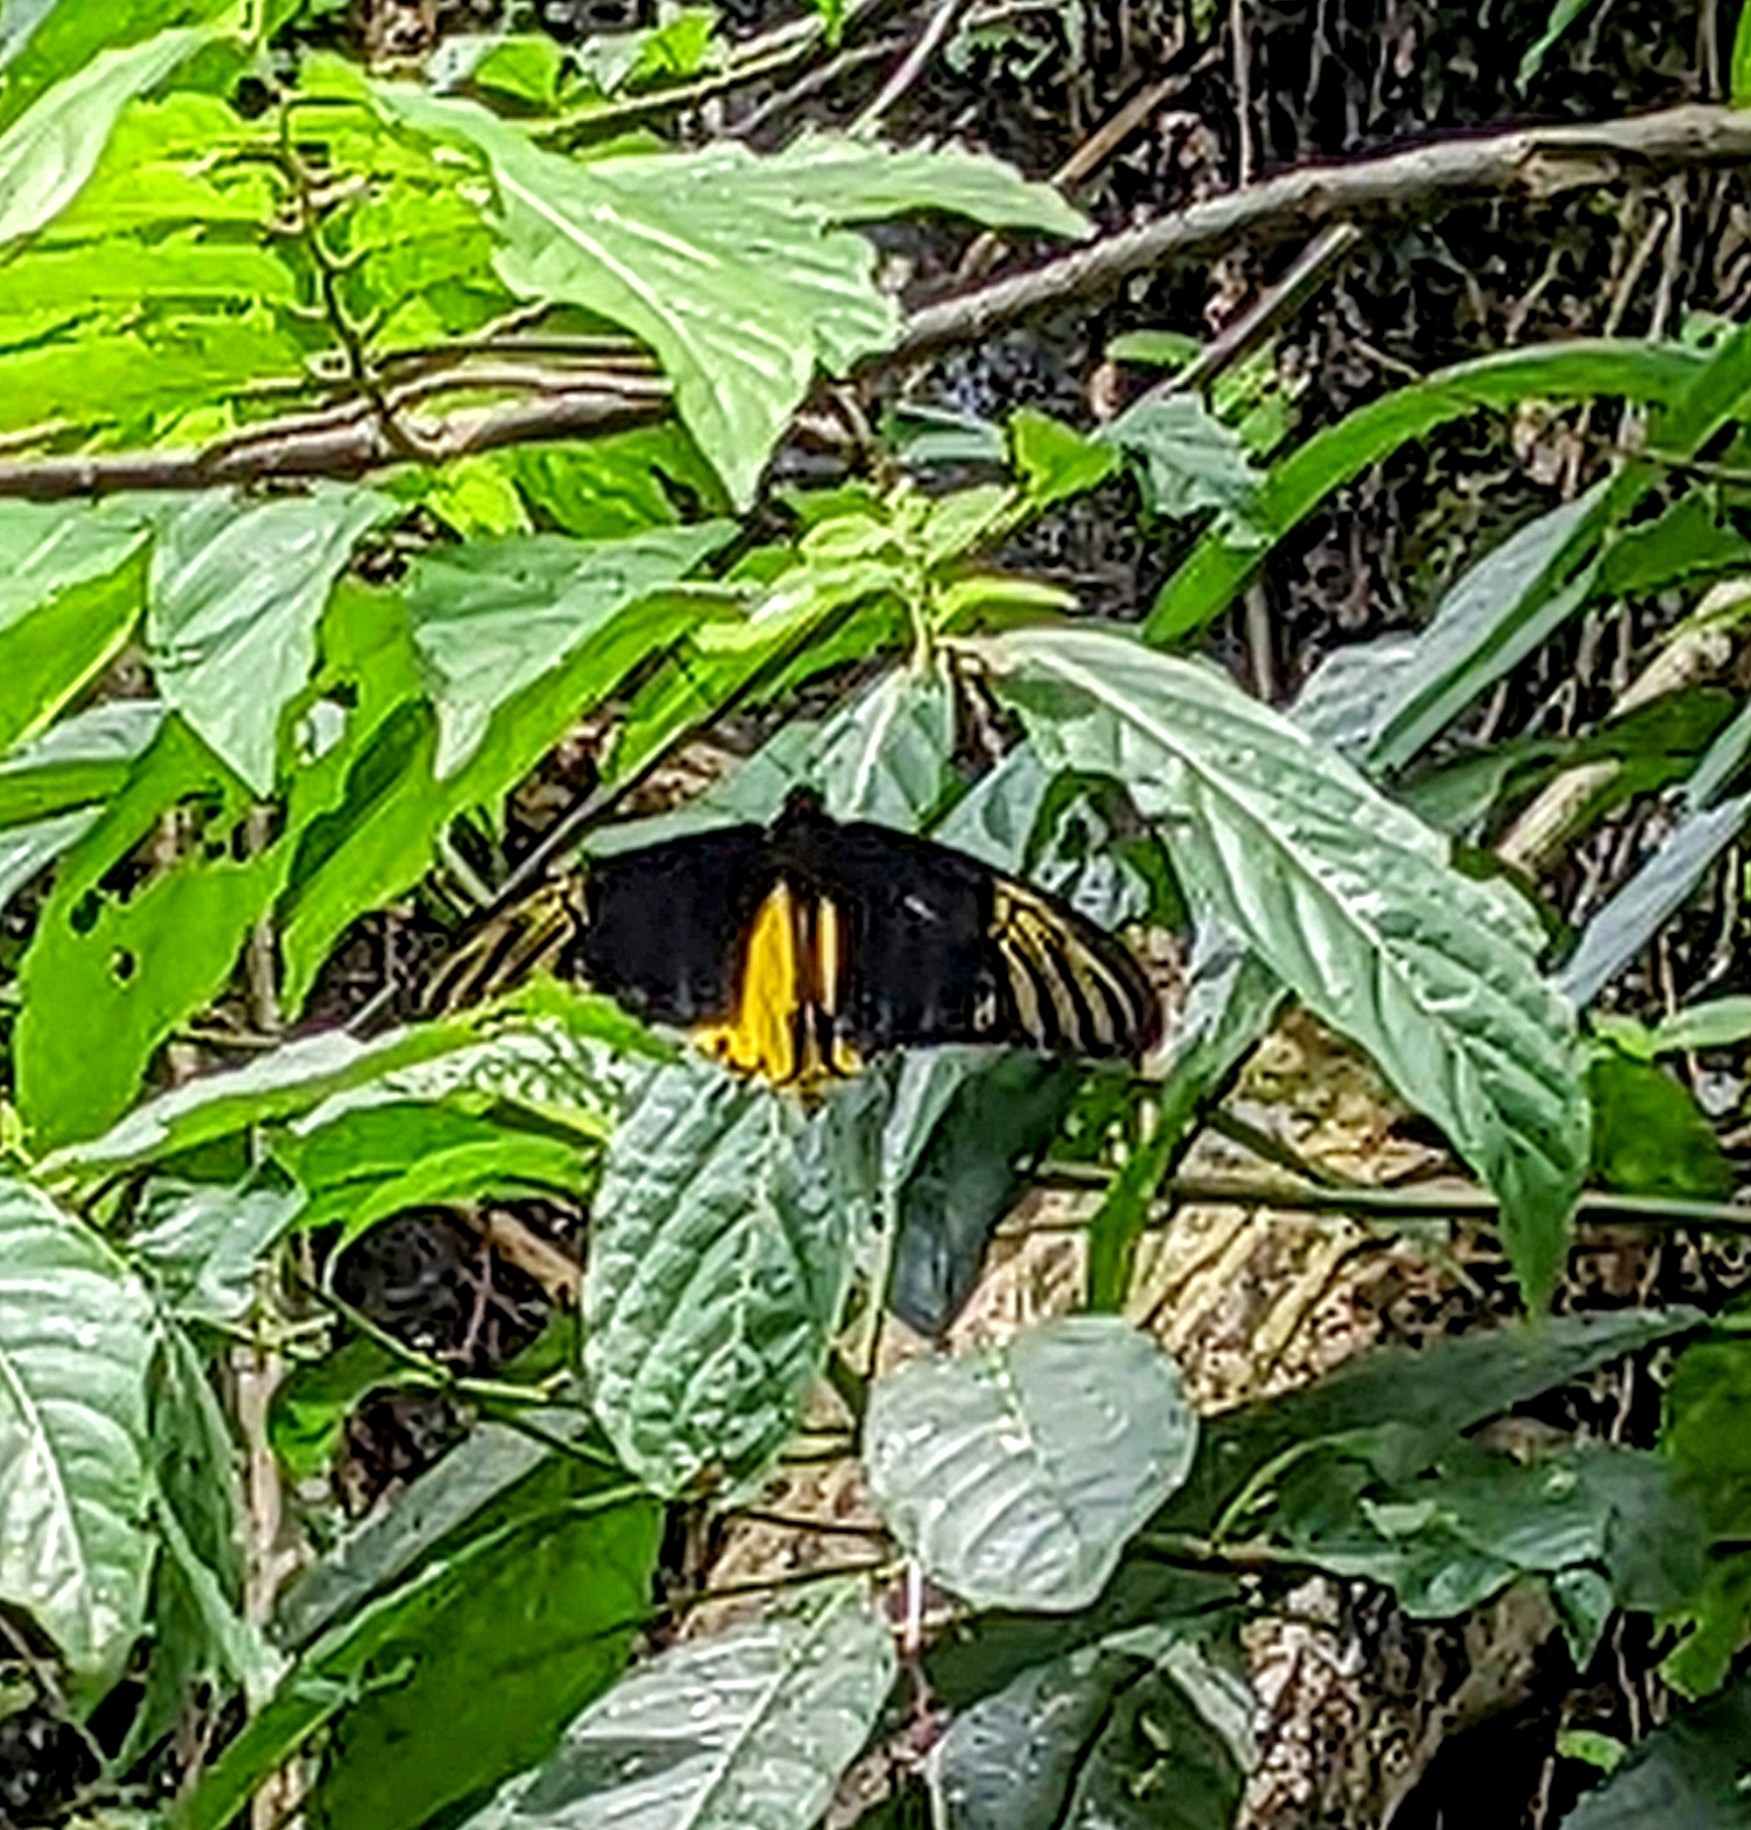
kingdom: Animalia
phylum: Arthropoda
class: Insecta
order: Lepidoptera
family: Papilionidae
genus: Troides
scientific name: Troides amphrysus
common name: Malay birdwing
